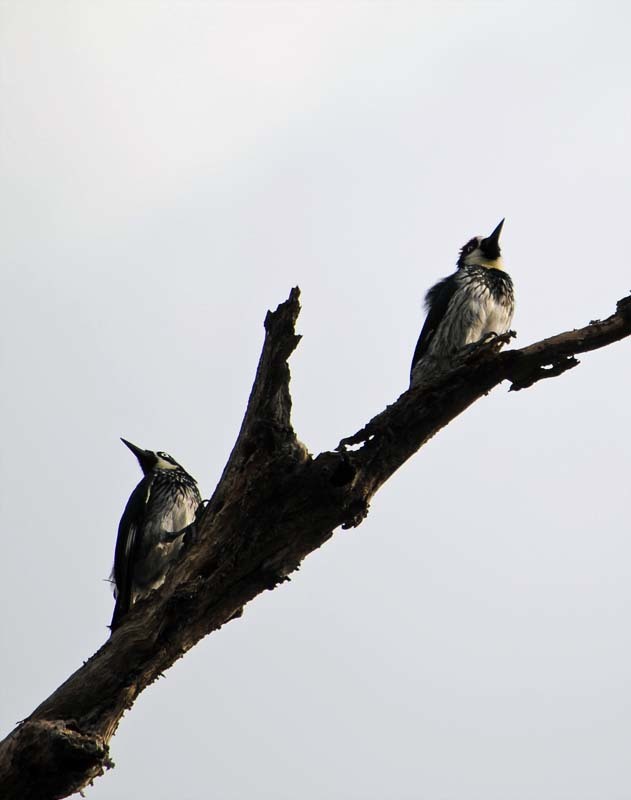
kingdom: Animalia
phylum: Chordata
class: Aves
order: Piciformes
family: Picidae
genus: Melanerpes
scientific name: Melanerpes formicivorus
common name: Acorn woodpecker
